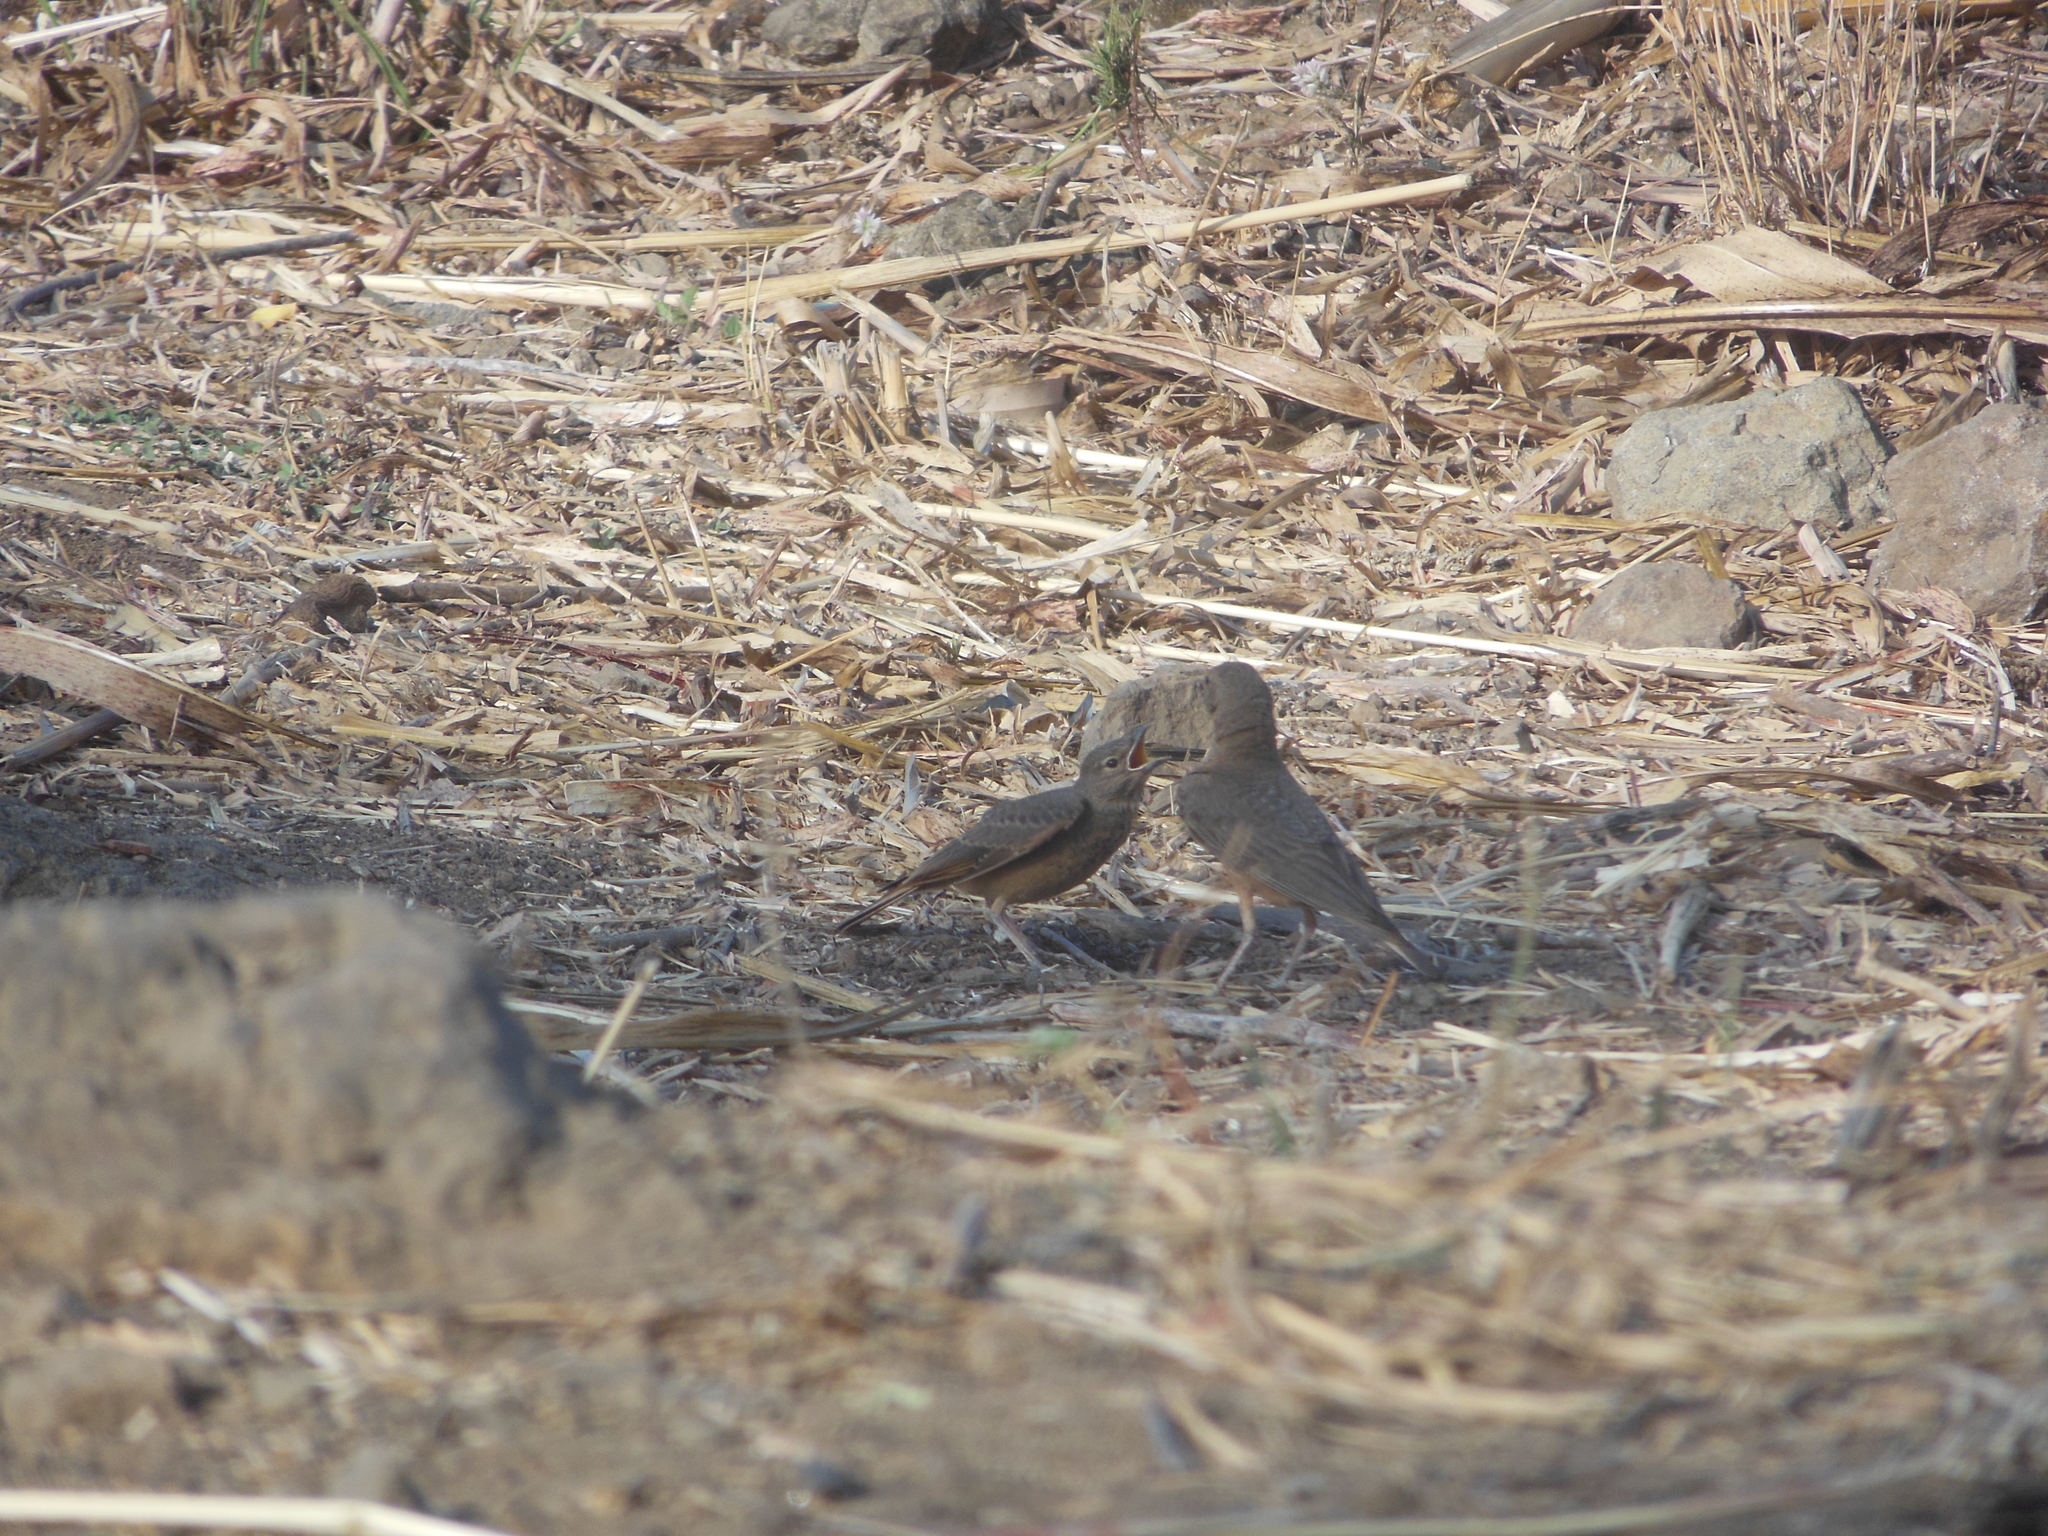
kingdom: Animalia
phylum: Chordata
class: Aves
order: Passeriformes
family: Alaudidae
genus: Ammomanes
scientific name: Ammomanes phoenicura
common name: Rufous-tailed lark
